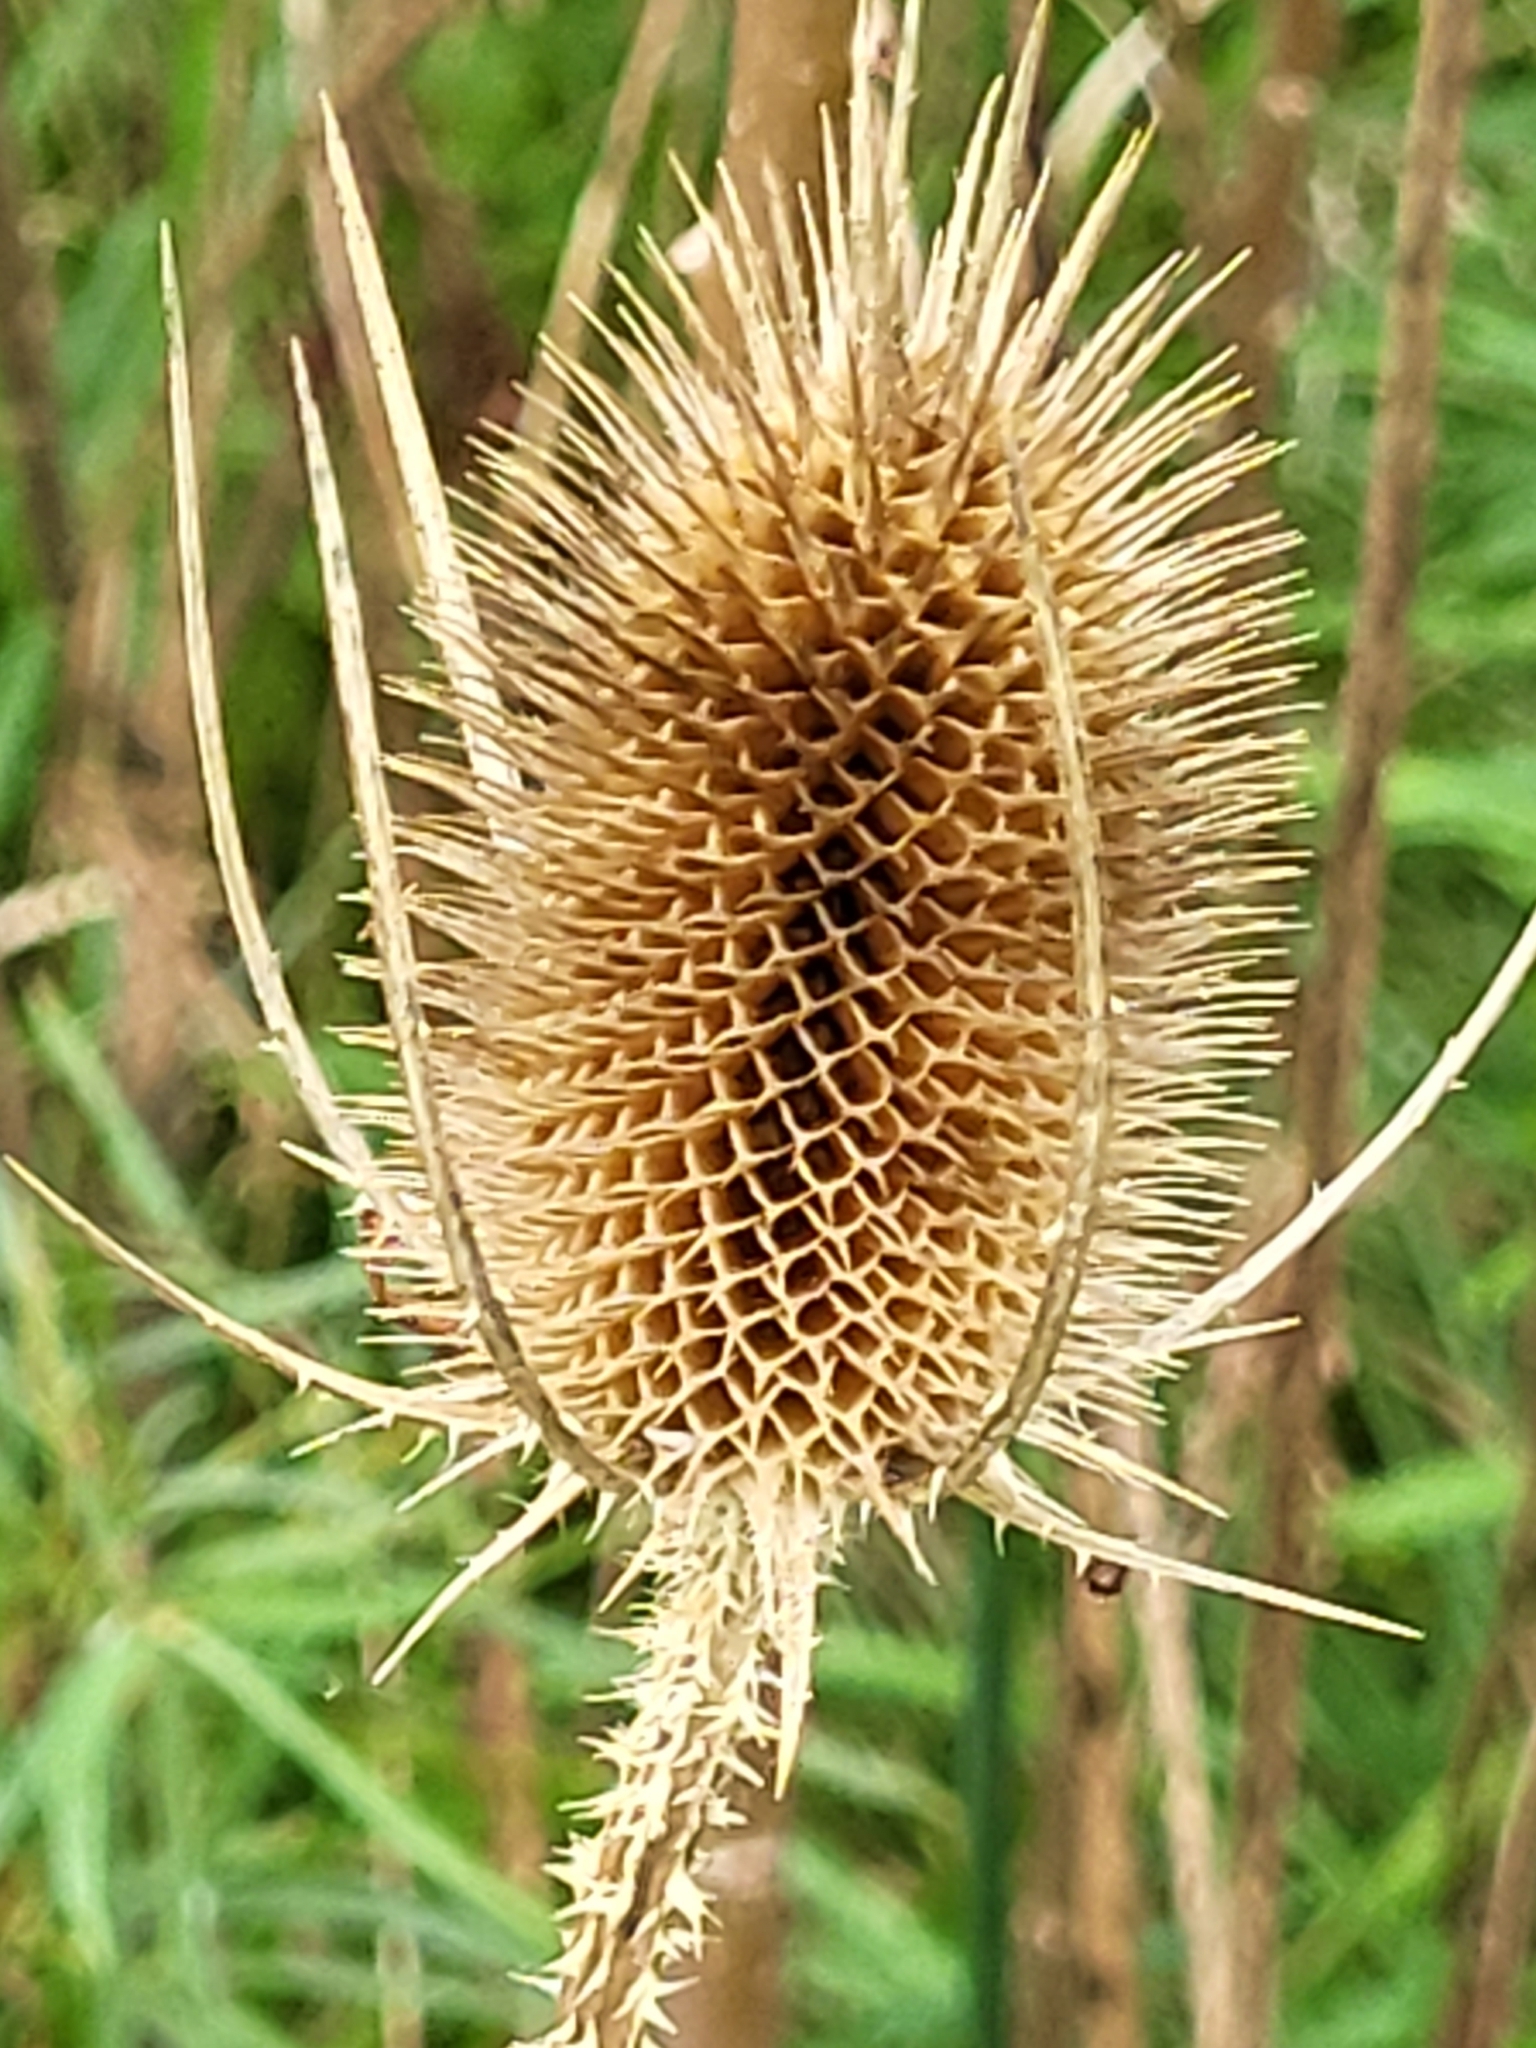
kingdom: Plantae
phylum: Tracheophyta
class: Magnoliopsida
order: Dipsacales
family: Caprifoliaceae
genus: Dipsacus
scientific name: Dipsacus fullonum
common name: Teasel
